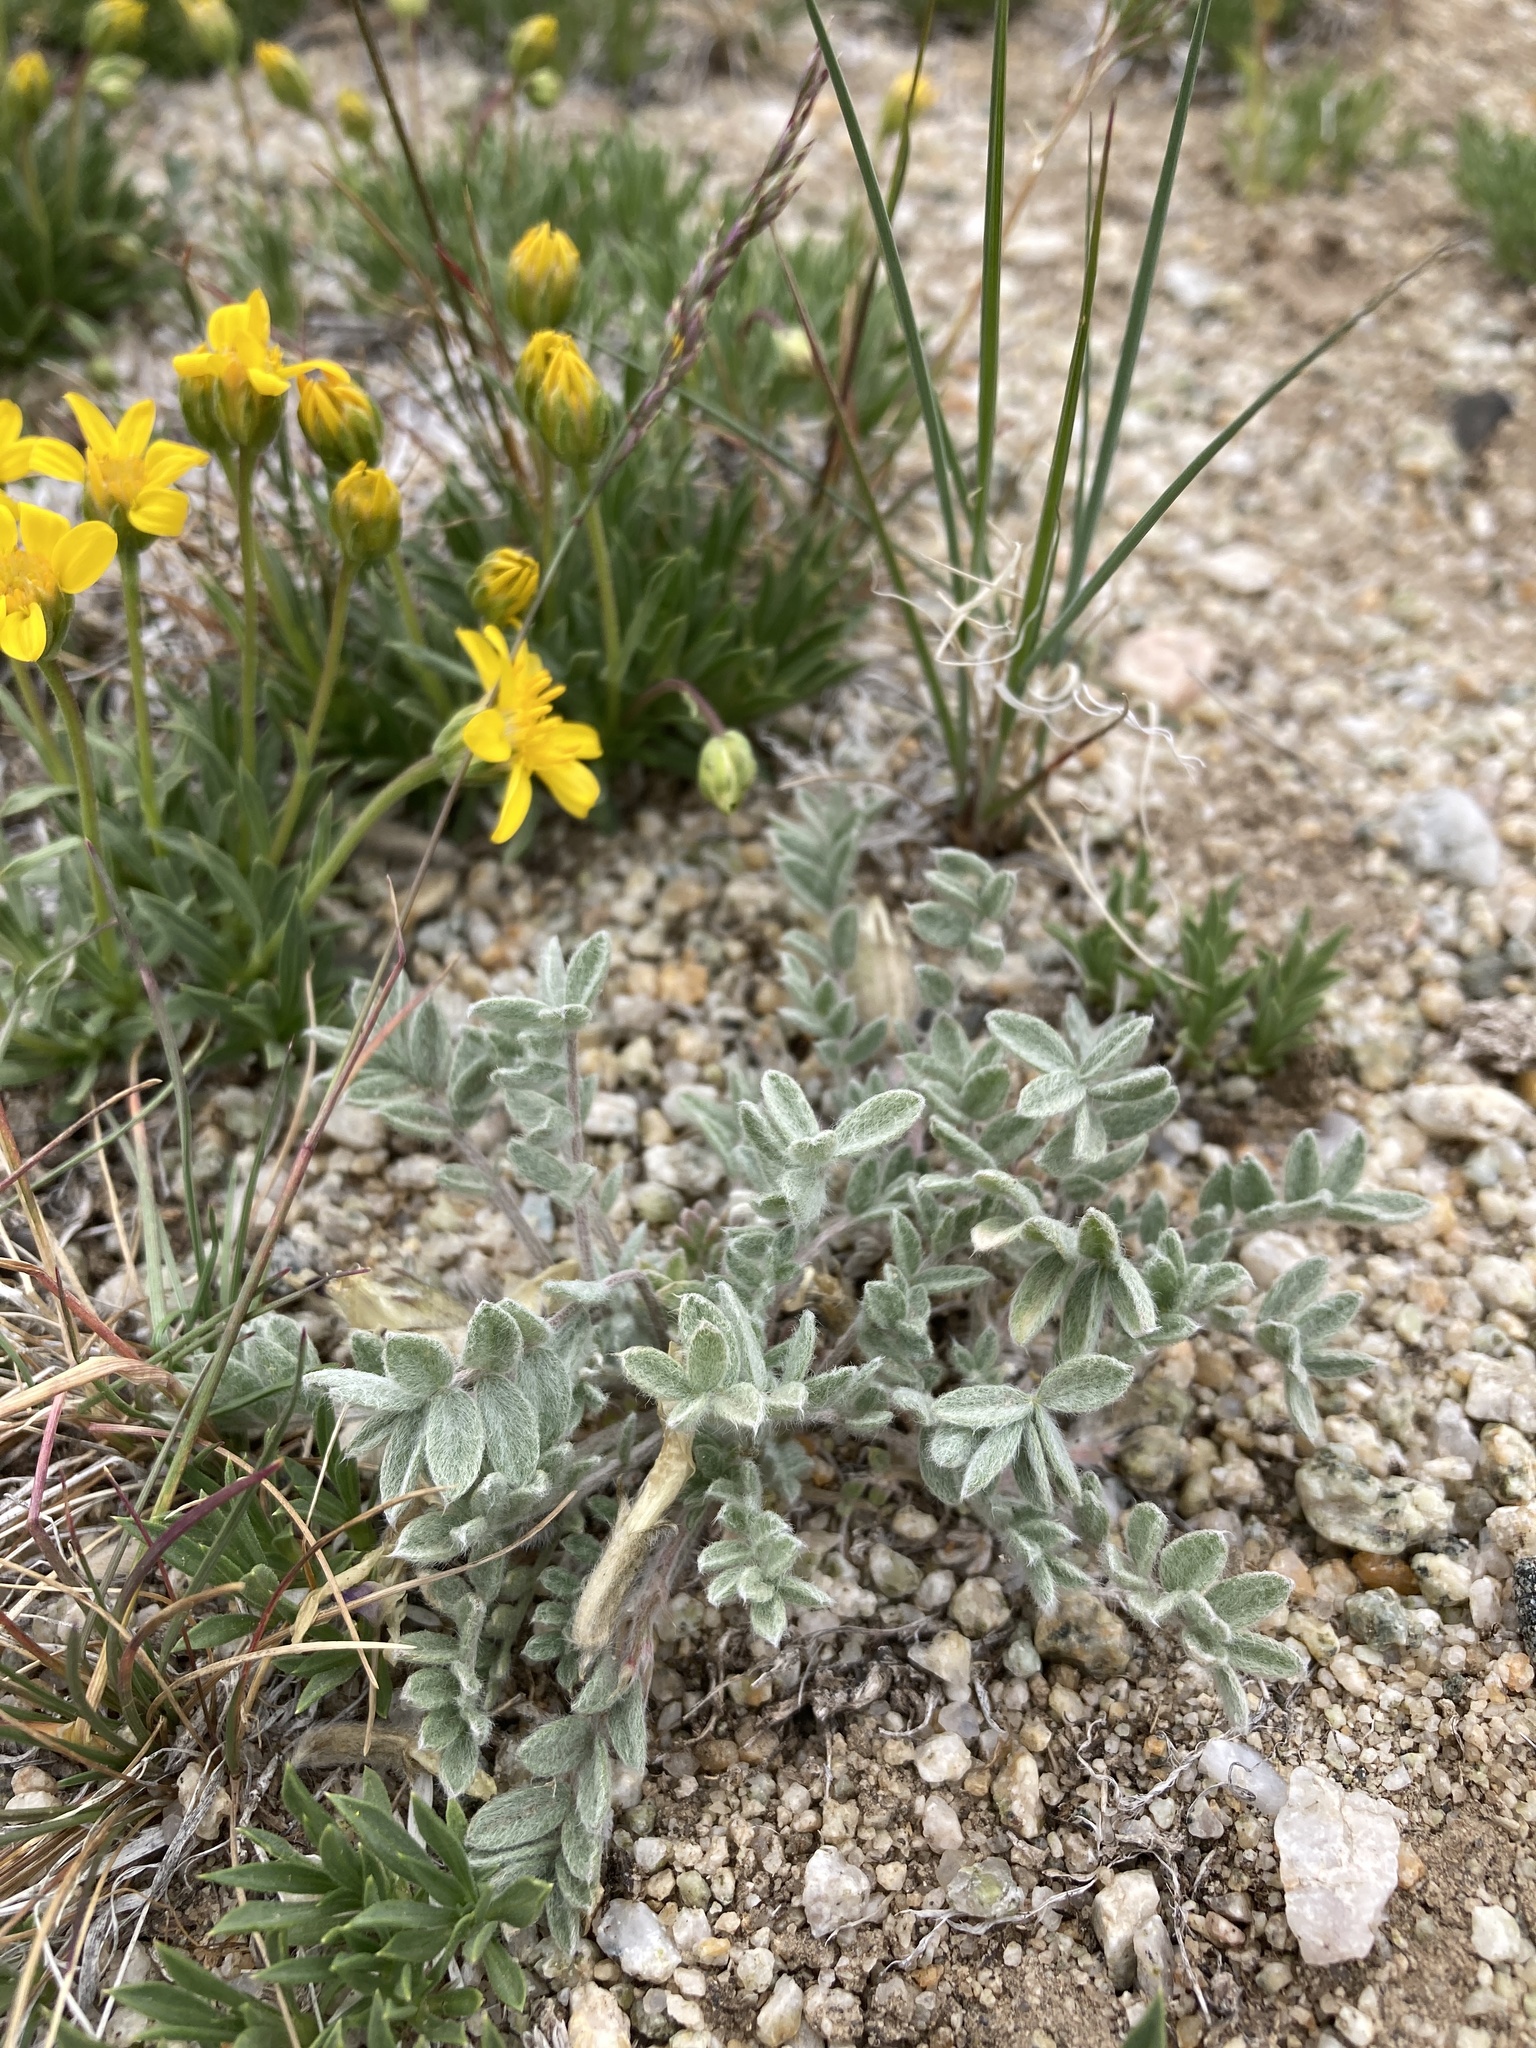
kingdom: Plantae
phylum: Tracheophyta
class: Magnoliopsida
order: Fabales
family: Fabaceae
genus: Astragalus
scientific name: Astragalus purshii
